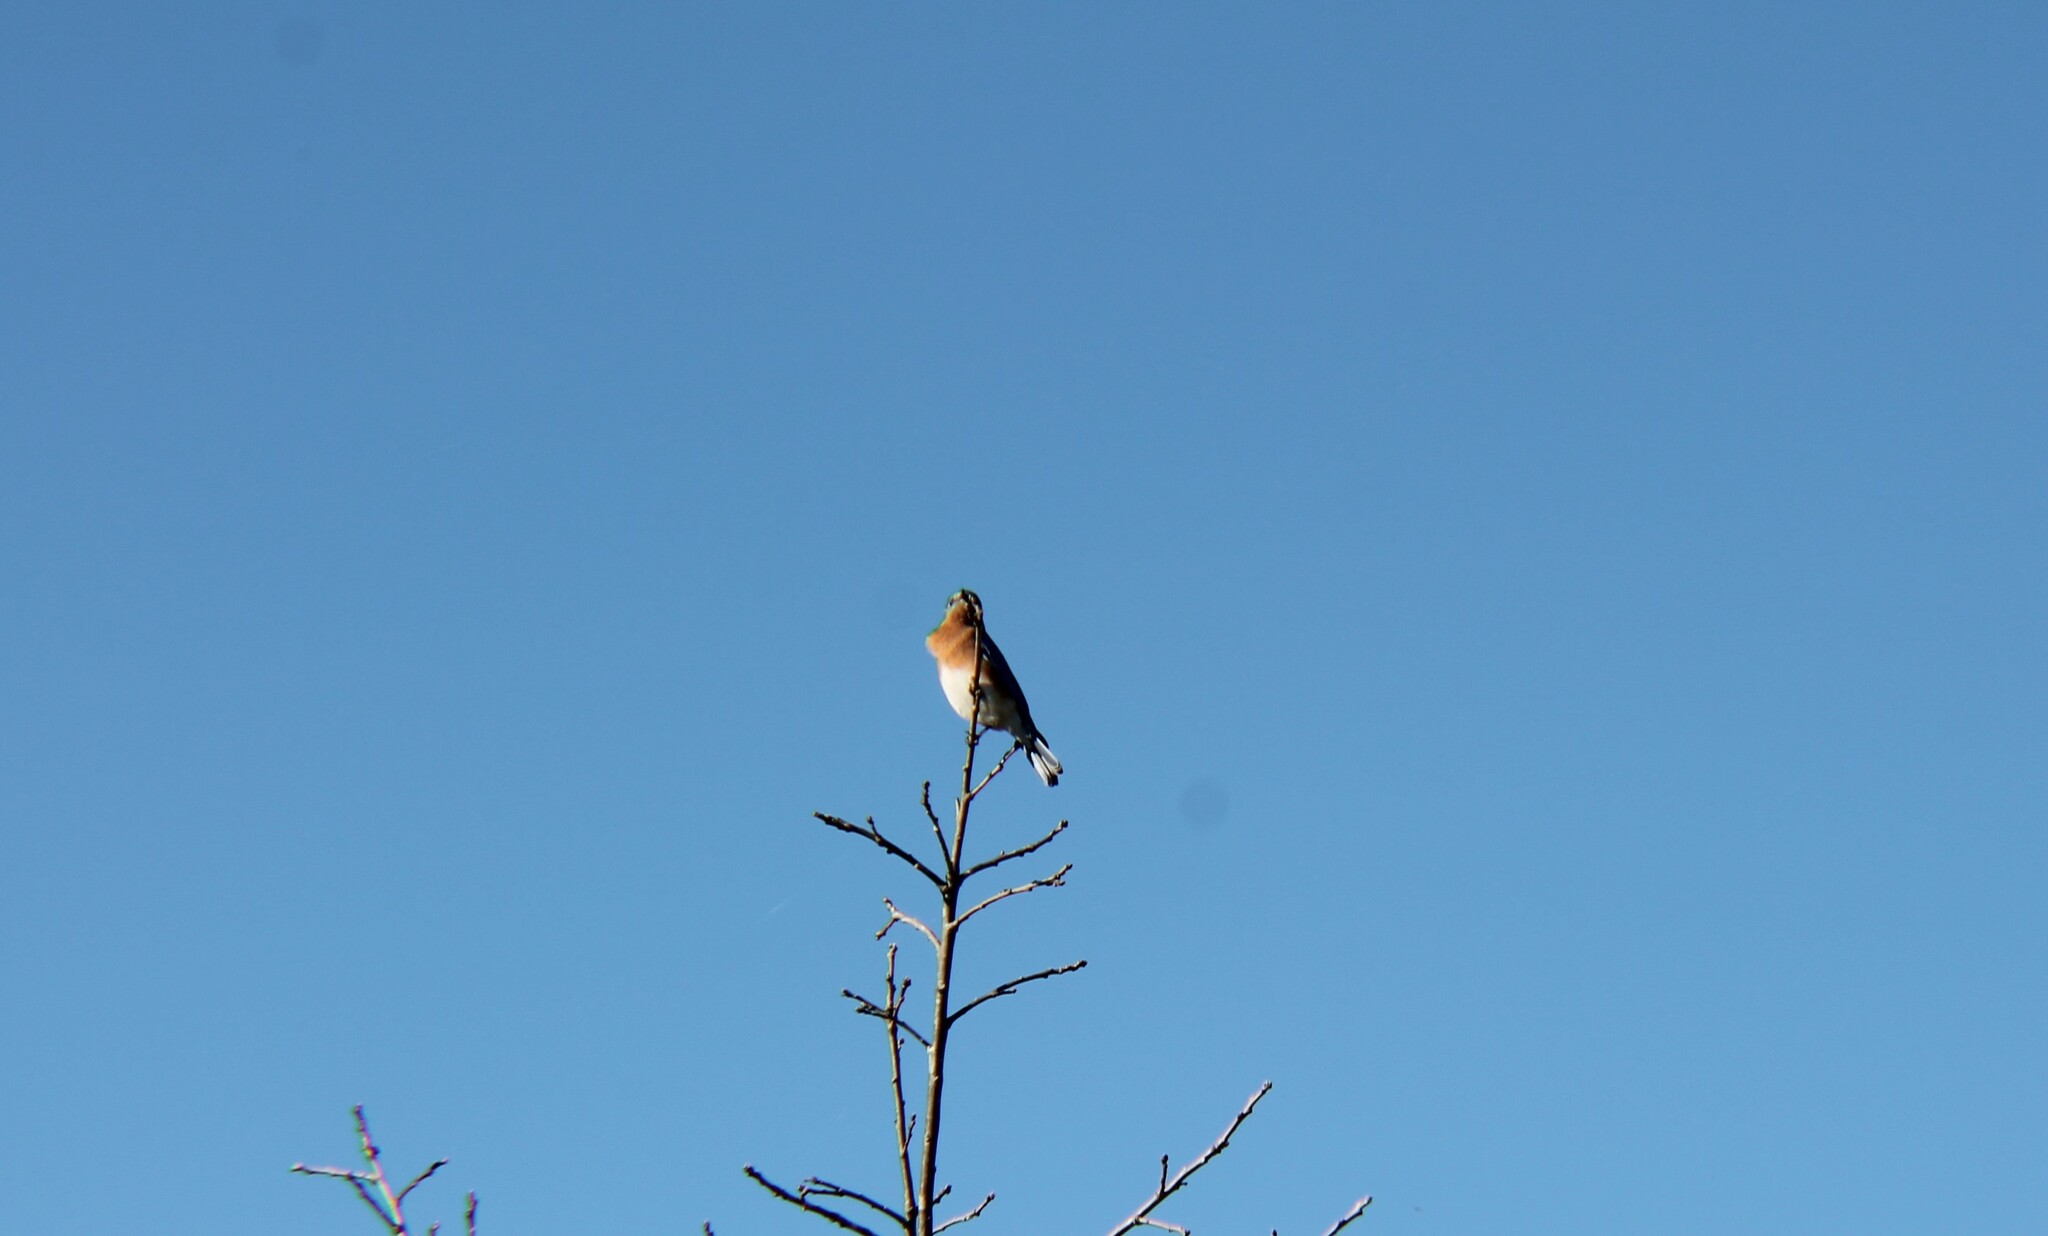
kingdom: Animalia
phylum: Chordata
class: Aves
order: Passeriformes
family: Turdidae
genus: Sialia
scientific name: Sialia sialis
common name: Eastern bluebird
